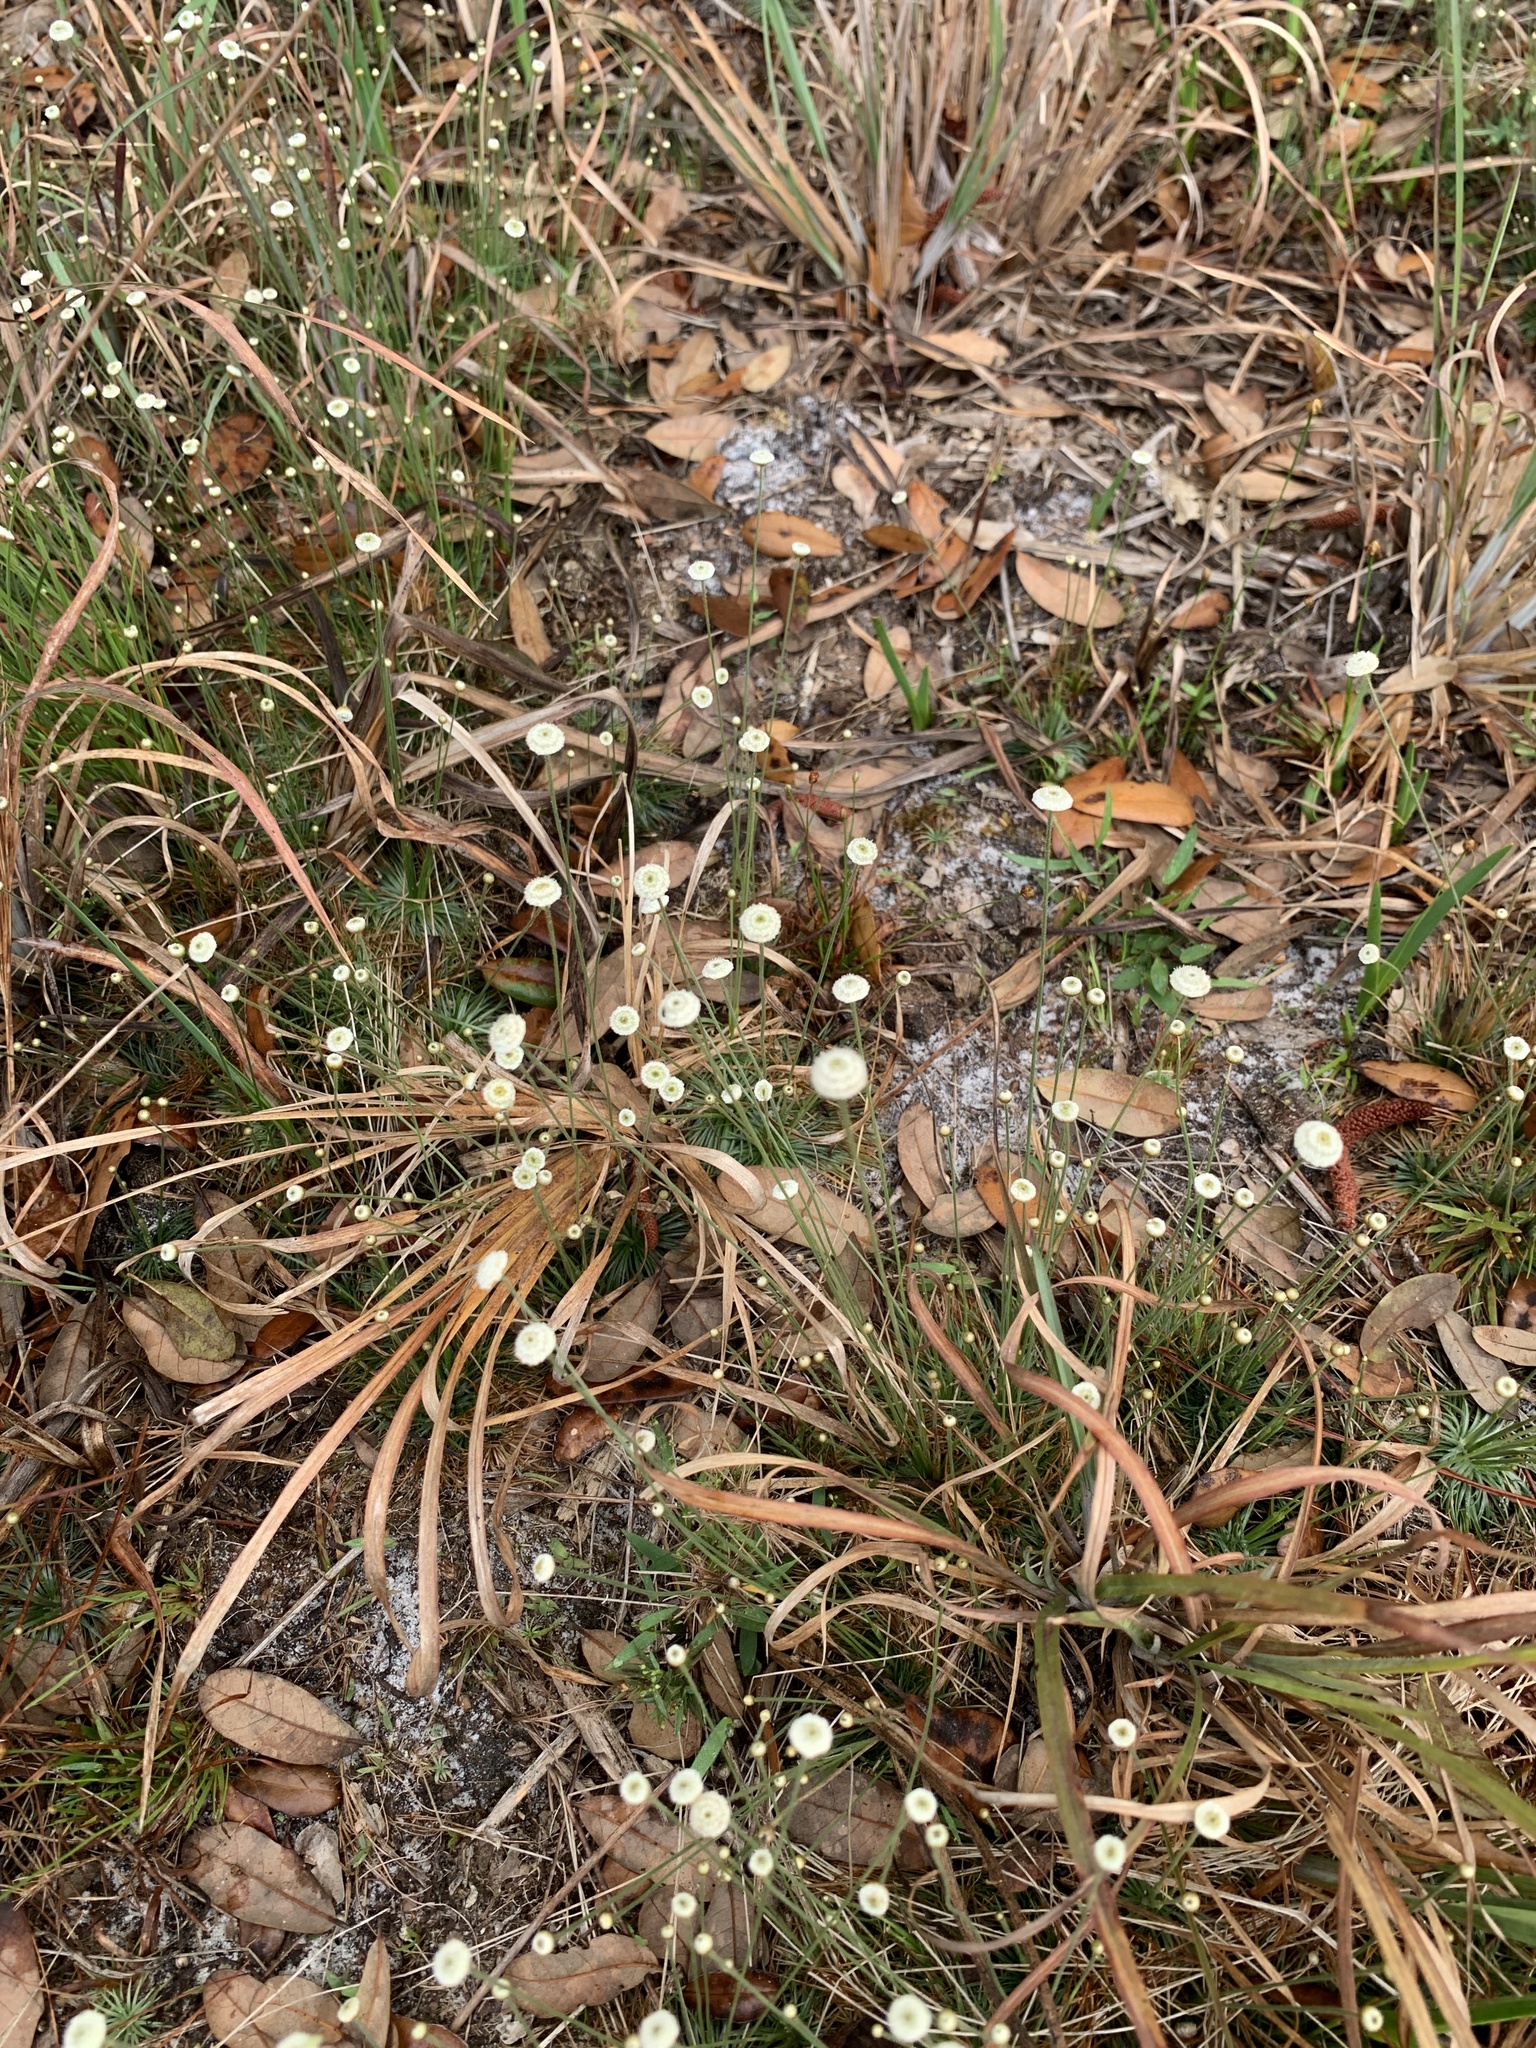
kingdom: Plantae
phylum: Tracheophyta
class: Liliopsida
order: Poales
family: Eriocaulaceae
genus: Syngonanthus
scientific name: Syngonanthus flavidulus
